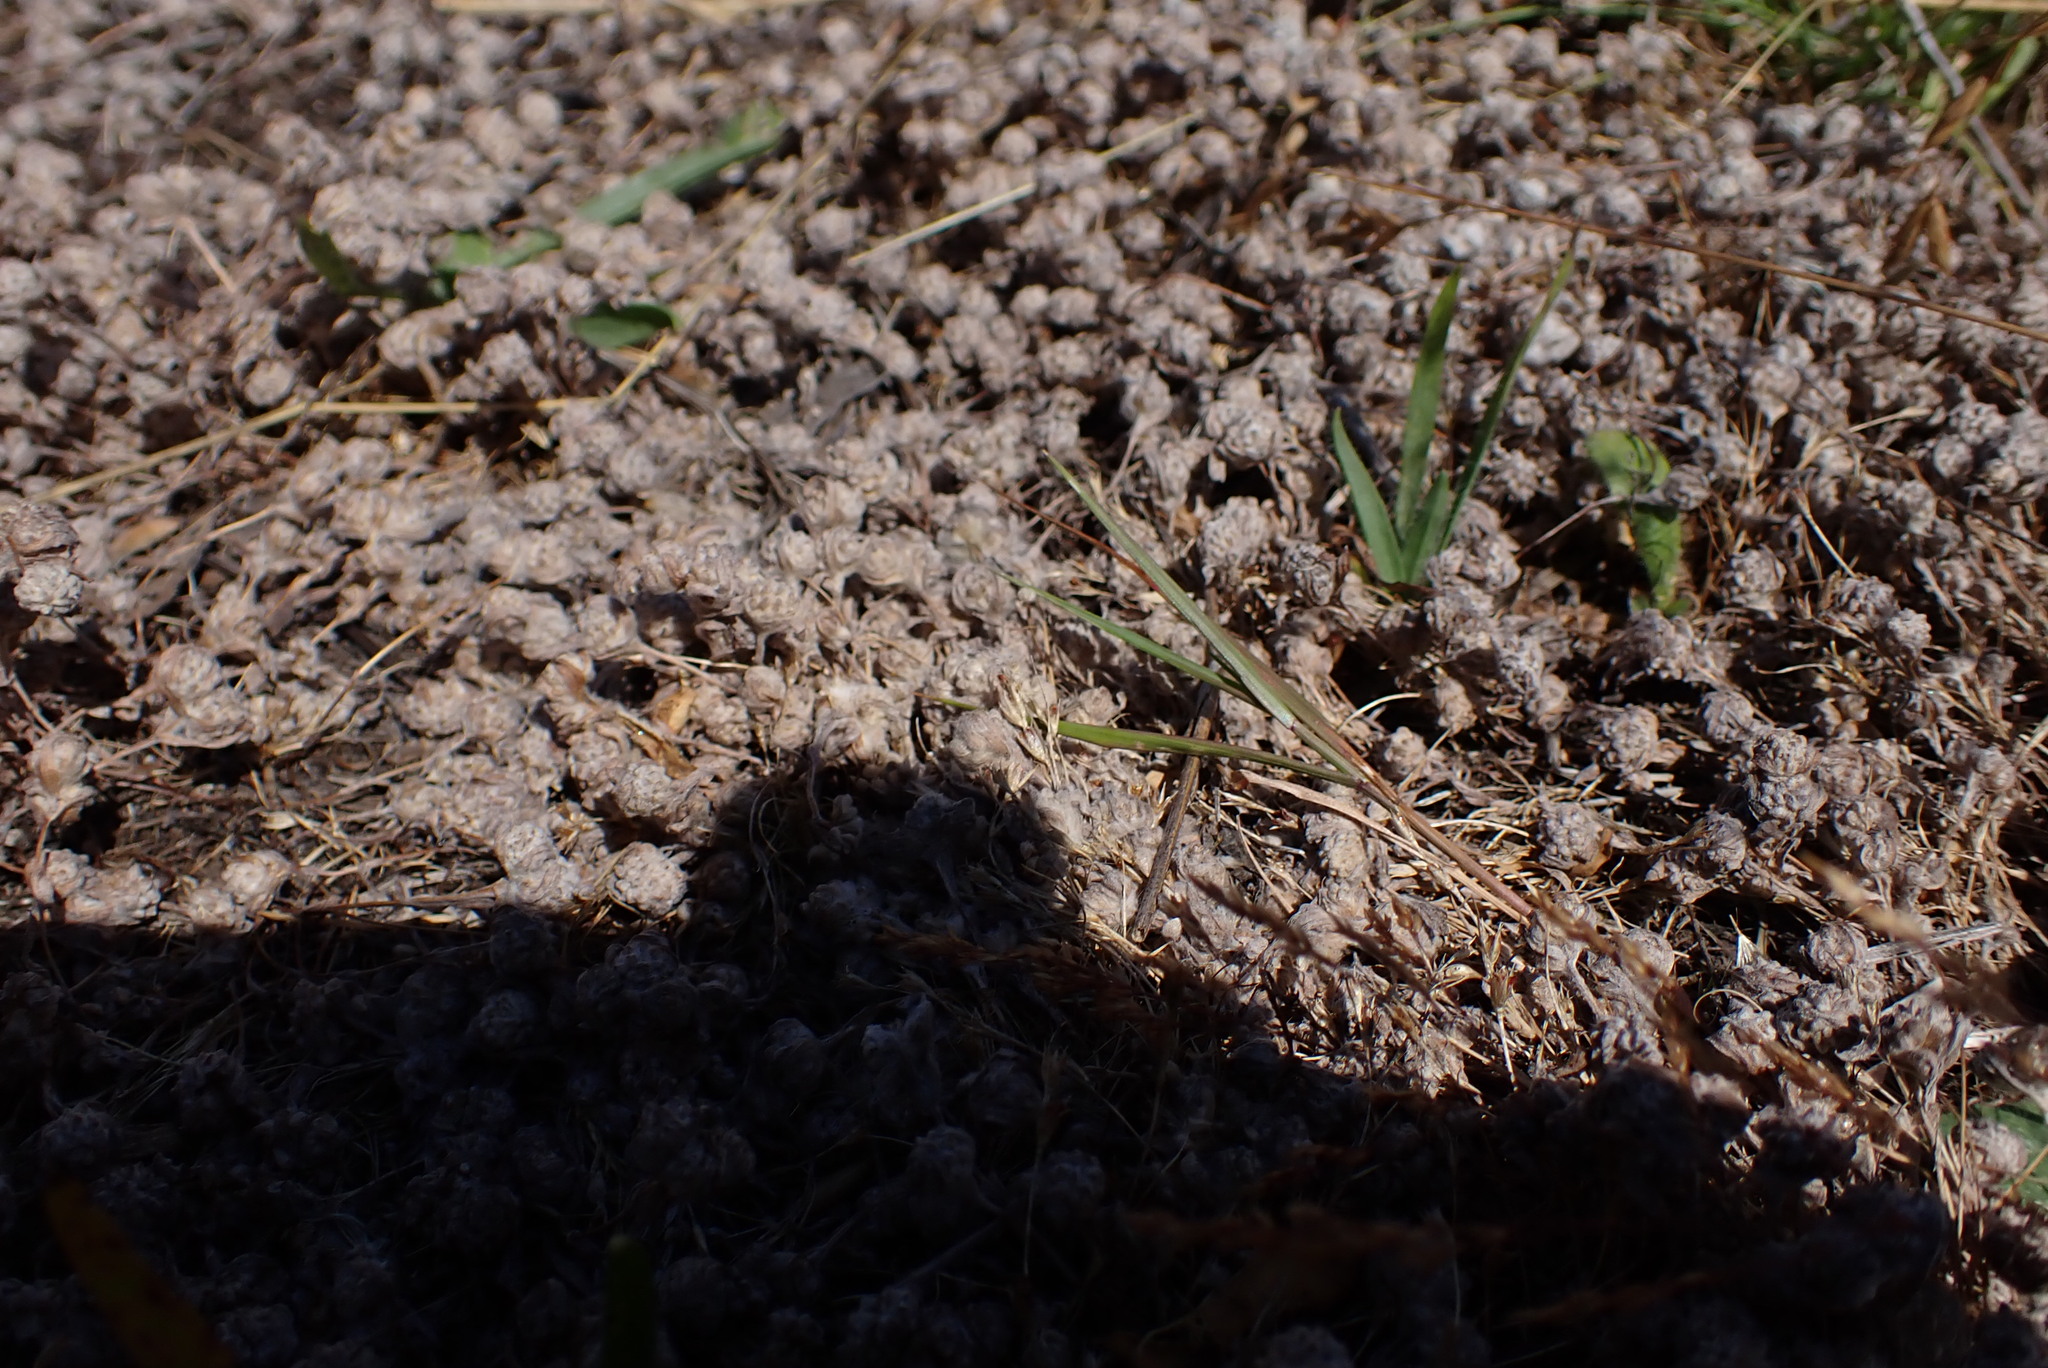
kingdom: Plantae
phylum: Tracheophyta
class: Magnoliopsida
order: Asterales
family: Asteraceae
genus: Psilocarphus
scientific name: Psilocarphus elatior
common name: Meadow woollyheads
